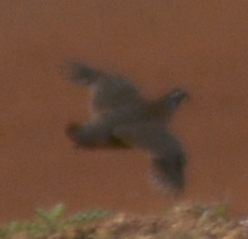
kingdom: Animalia
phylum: Chordata
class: Aves
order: Galliformes
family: Phasianidae
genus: Alectoris
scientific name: Alectoris rufa
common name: Red-legged partridge
